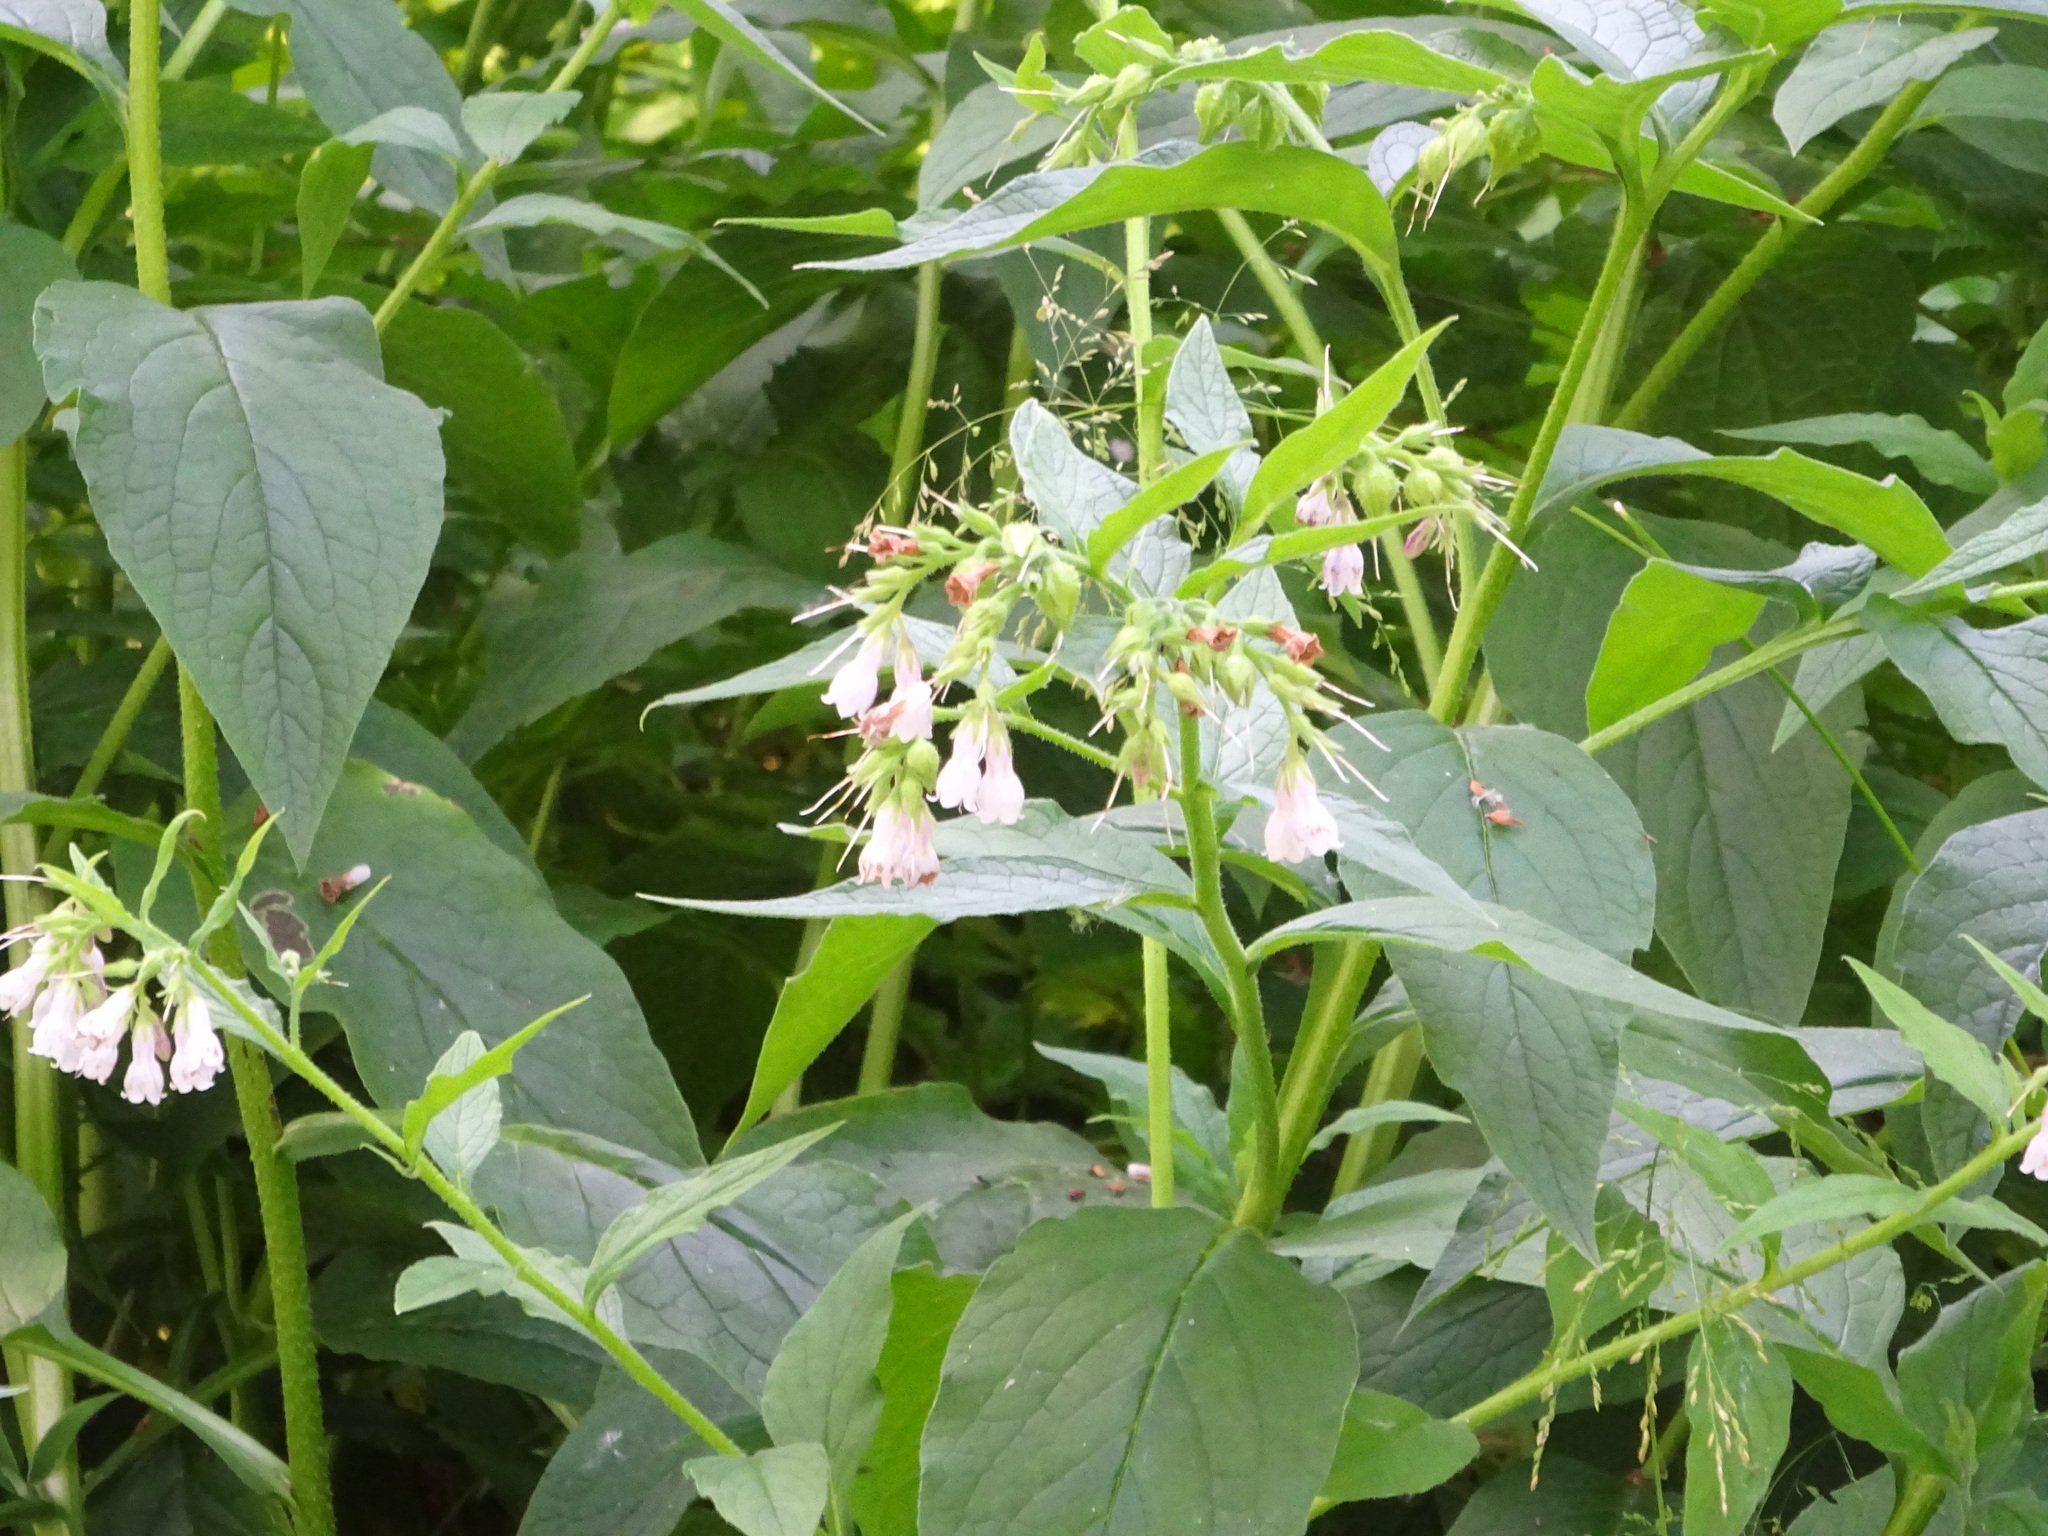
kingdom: Plantae
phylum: Tracheophyta
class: Magnoliopsida
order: Boraginales
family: Boraginaceae
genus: Symphytum
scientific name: Symphytum uplandicum
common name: Russian comfrey
